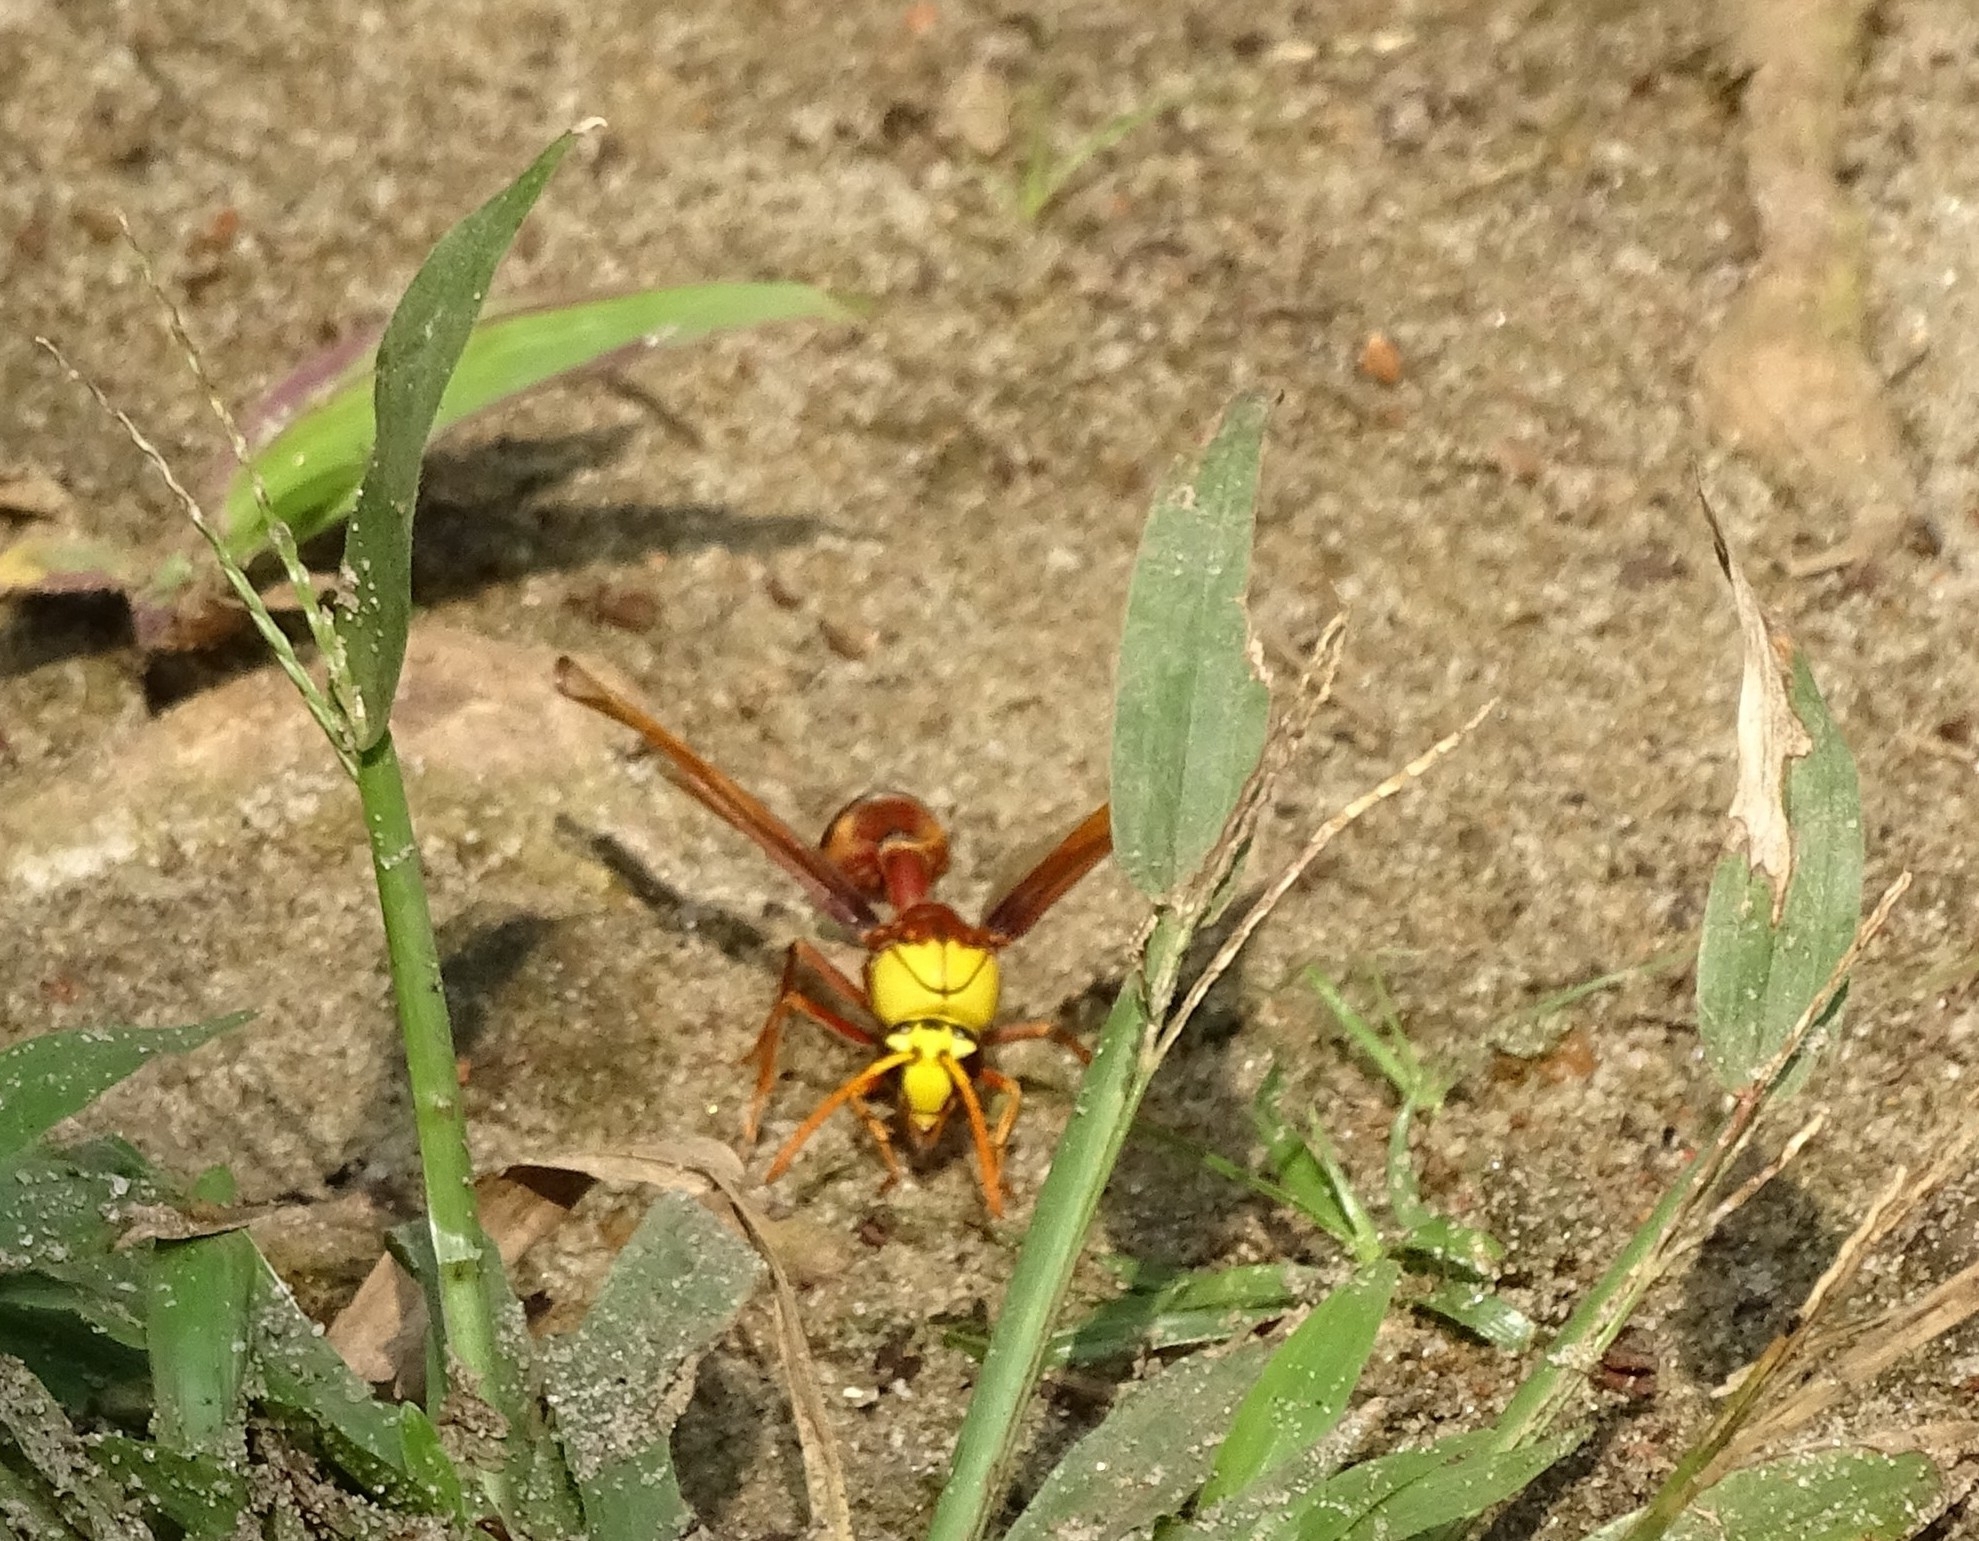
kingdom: Animalia
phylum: Arthropoda
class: Insecta
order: Hymenoptera
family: Eumenidae
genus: Delta
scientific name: Delta pyriforme
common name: Wasp
